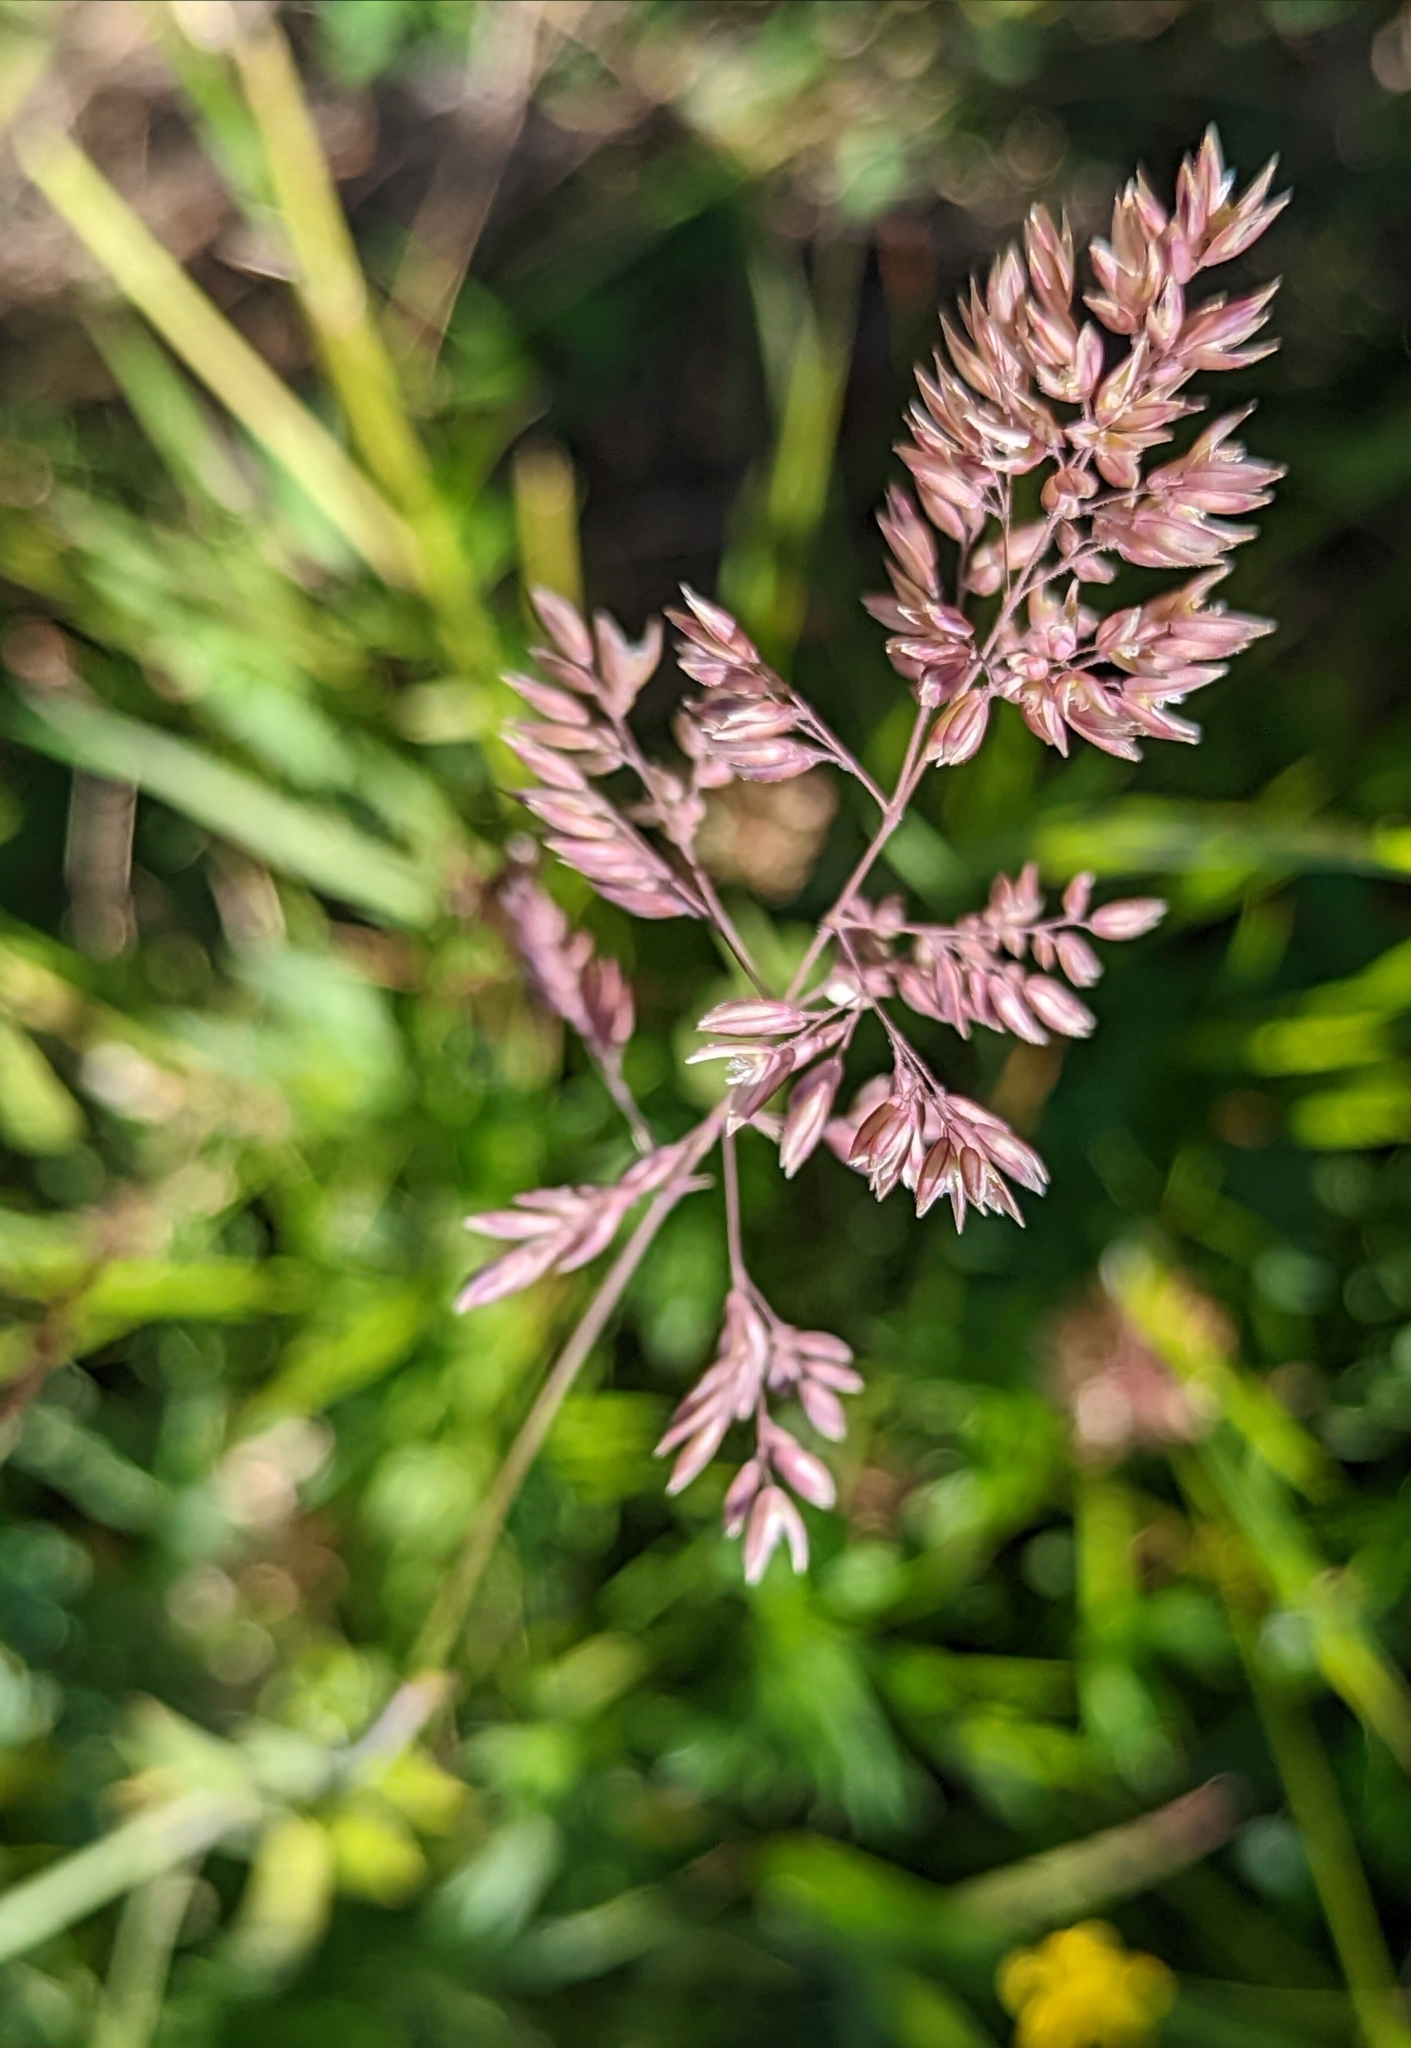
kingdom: Plantae
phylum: Tracheophyta
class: Liliopsida
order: Poales
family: Poaceae
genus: Holcus
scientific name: Holcus lanatus
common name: Yorkshire-fog
